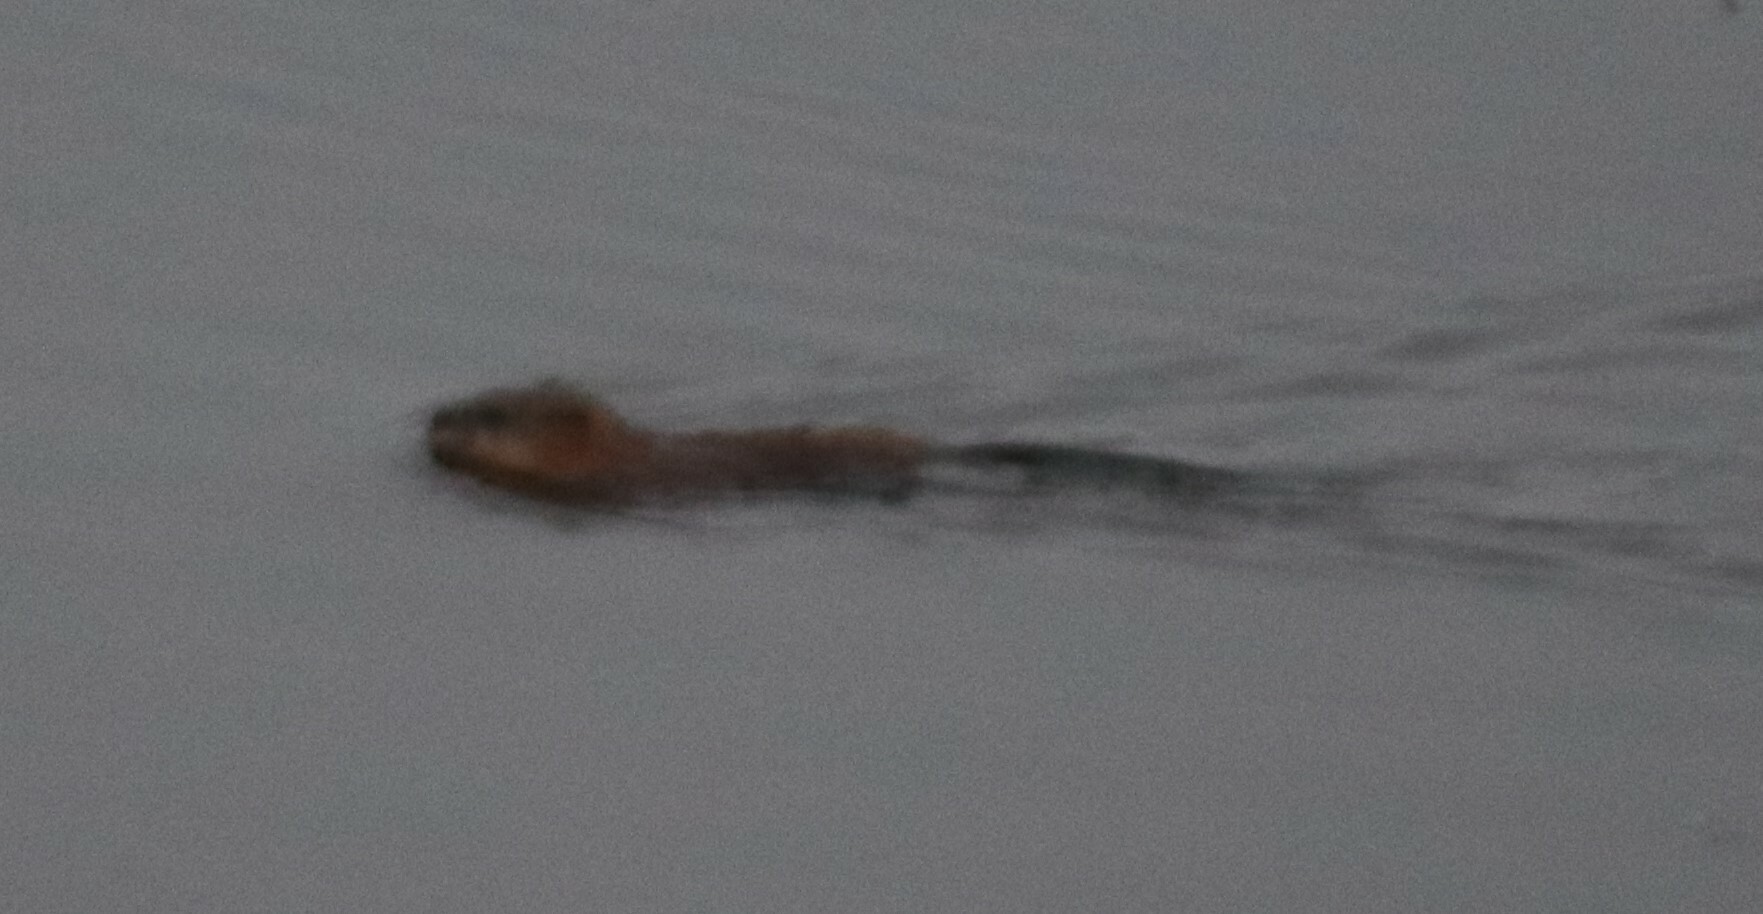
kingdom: Animalia
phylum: Chordata
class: Mammalia
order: Rodentia
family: Cricetidae
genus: Ondatra
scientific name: Ondatra zibethicus
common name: Muskrat
